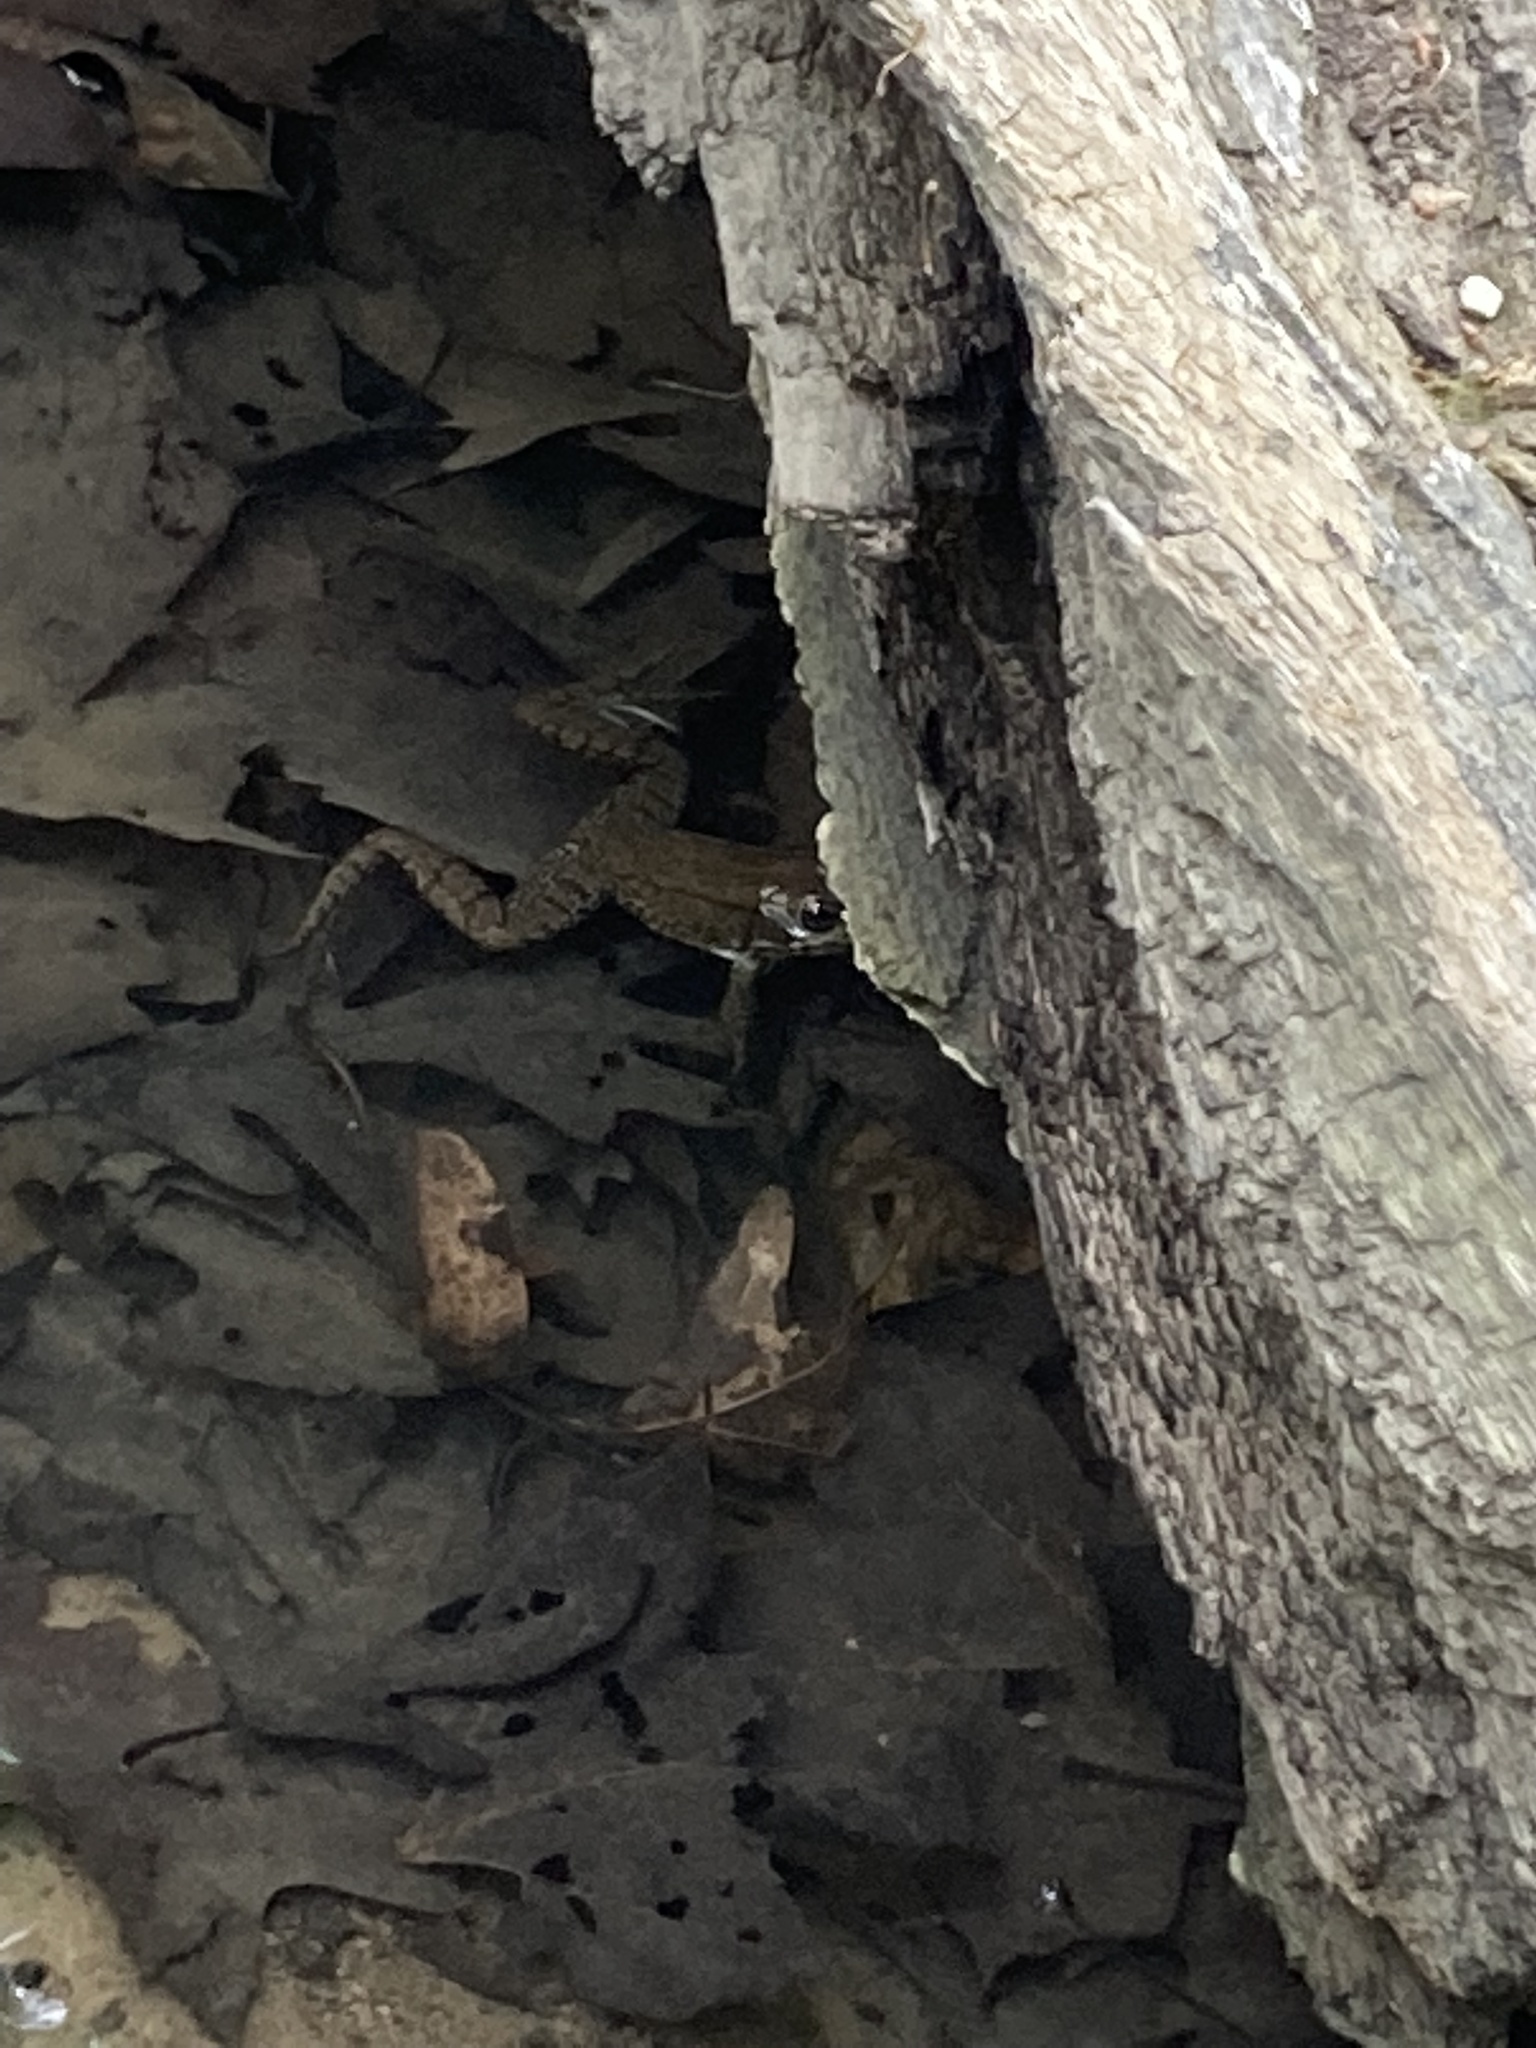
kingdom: Animalia
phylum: Chordata
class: Amphibia
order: Anura
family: Ranidae
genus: Lithobates
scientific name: Lithobates clamitans
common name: Green frog
